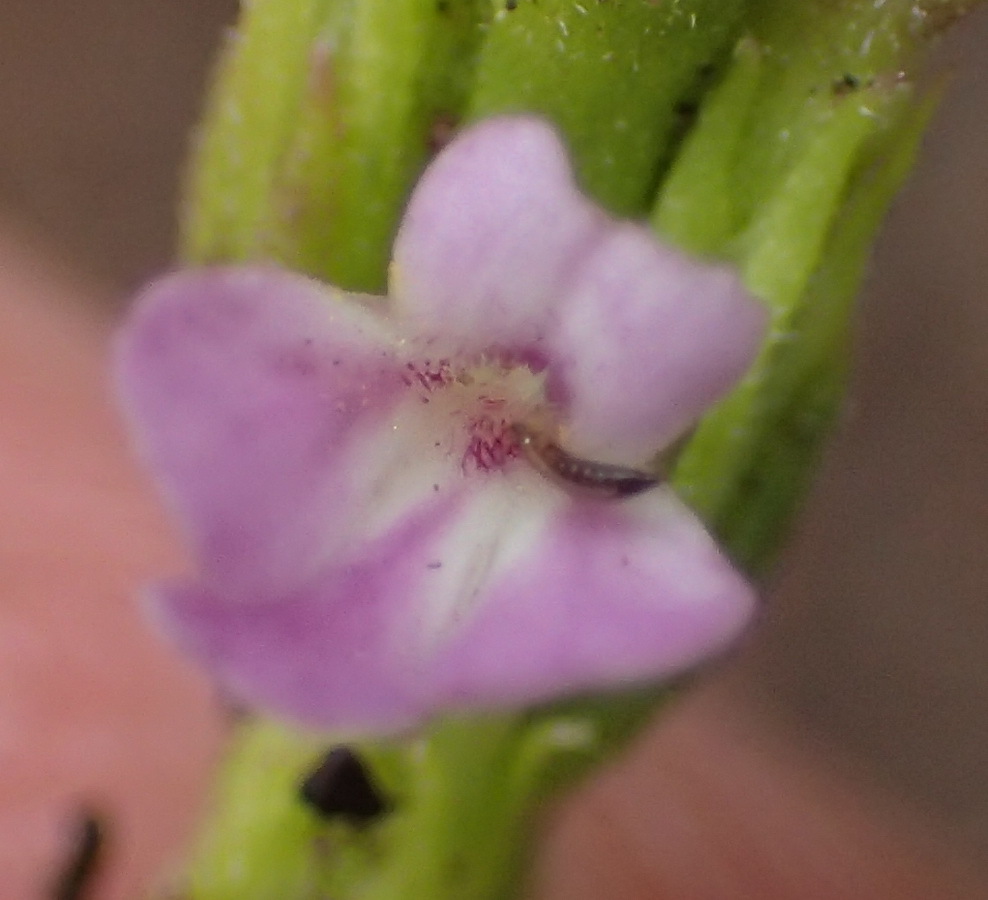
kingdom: Plantae
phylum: Tracheophyta
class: Magnoliopsida
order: Lamiales
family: Orobanchaceae
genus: Striga
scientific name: Striga gesnerioides
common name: Cowpea witchweed
